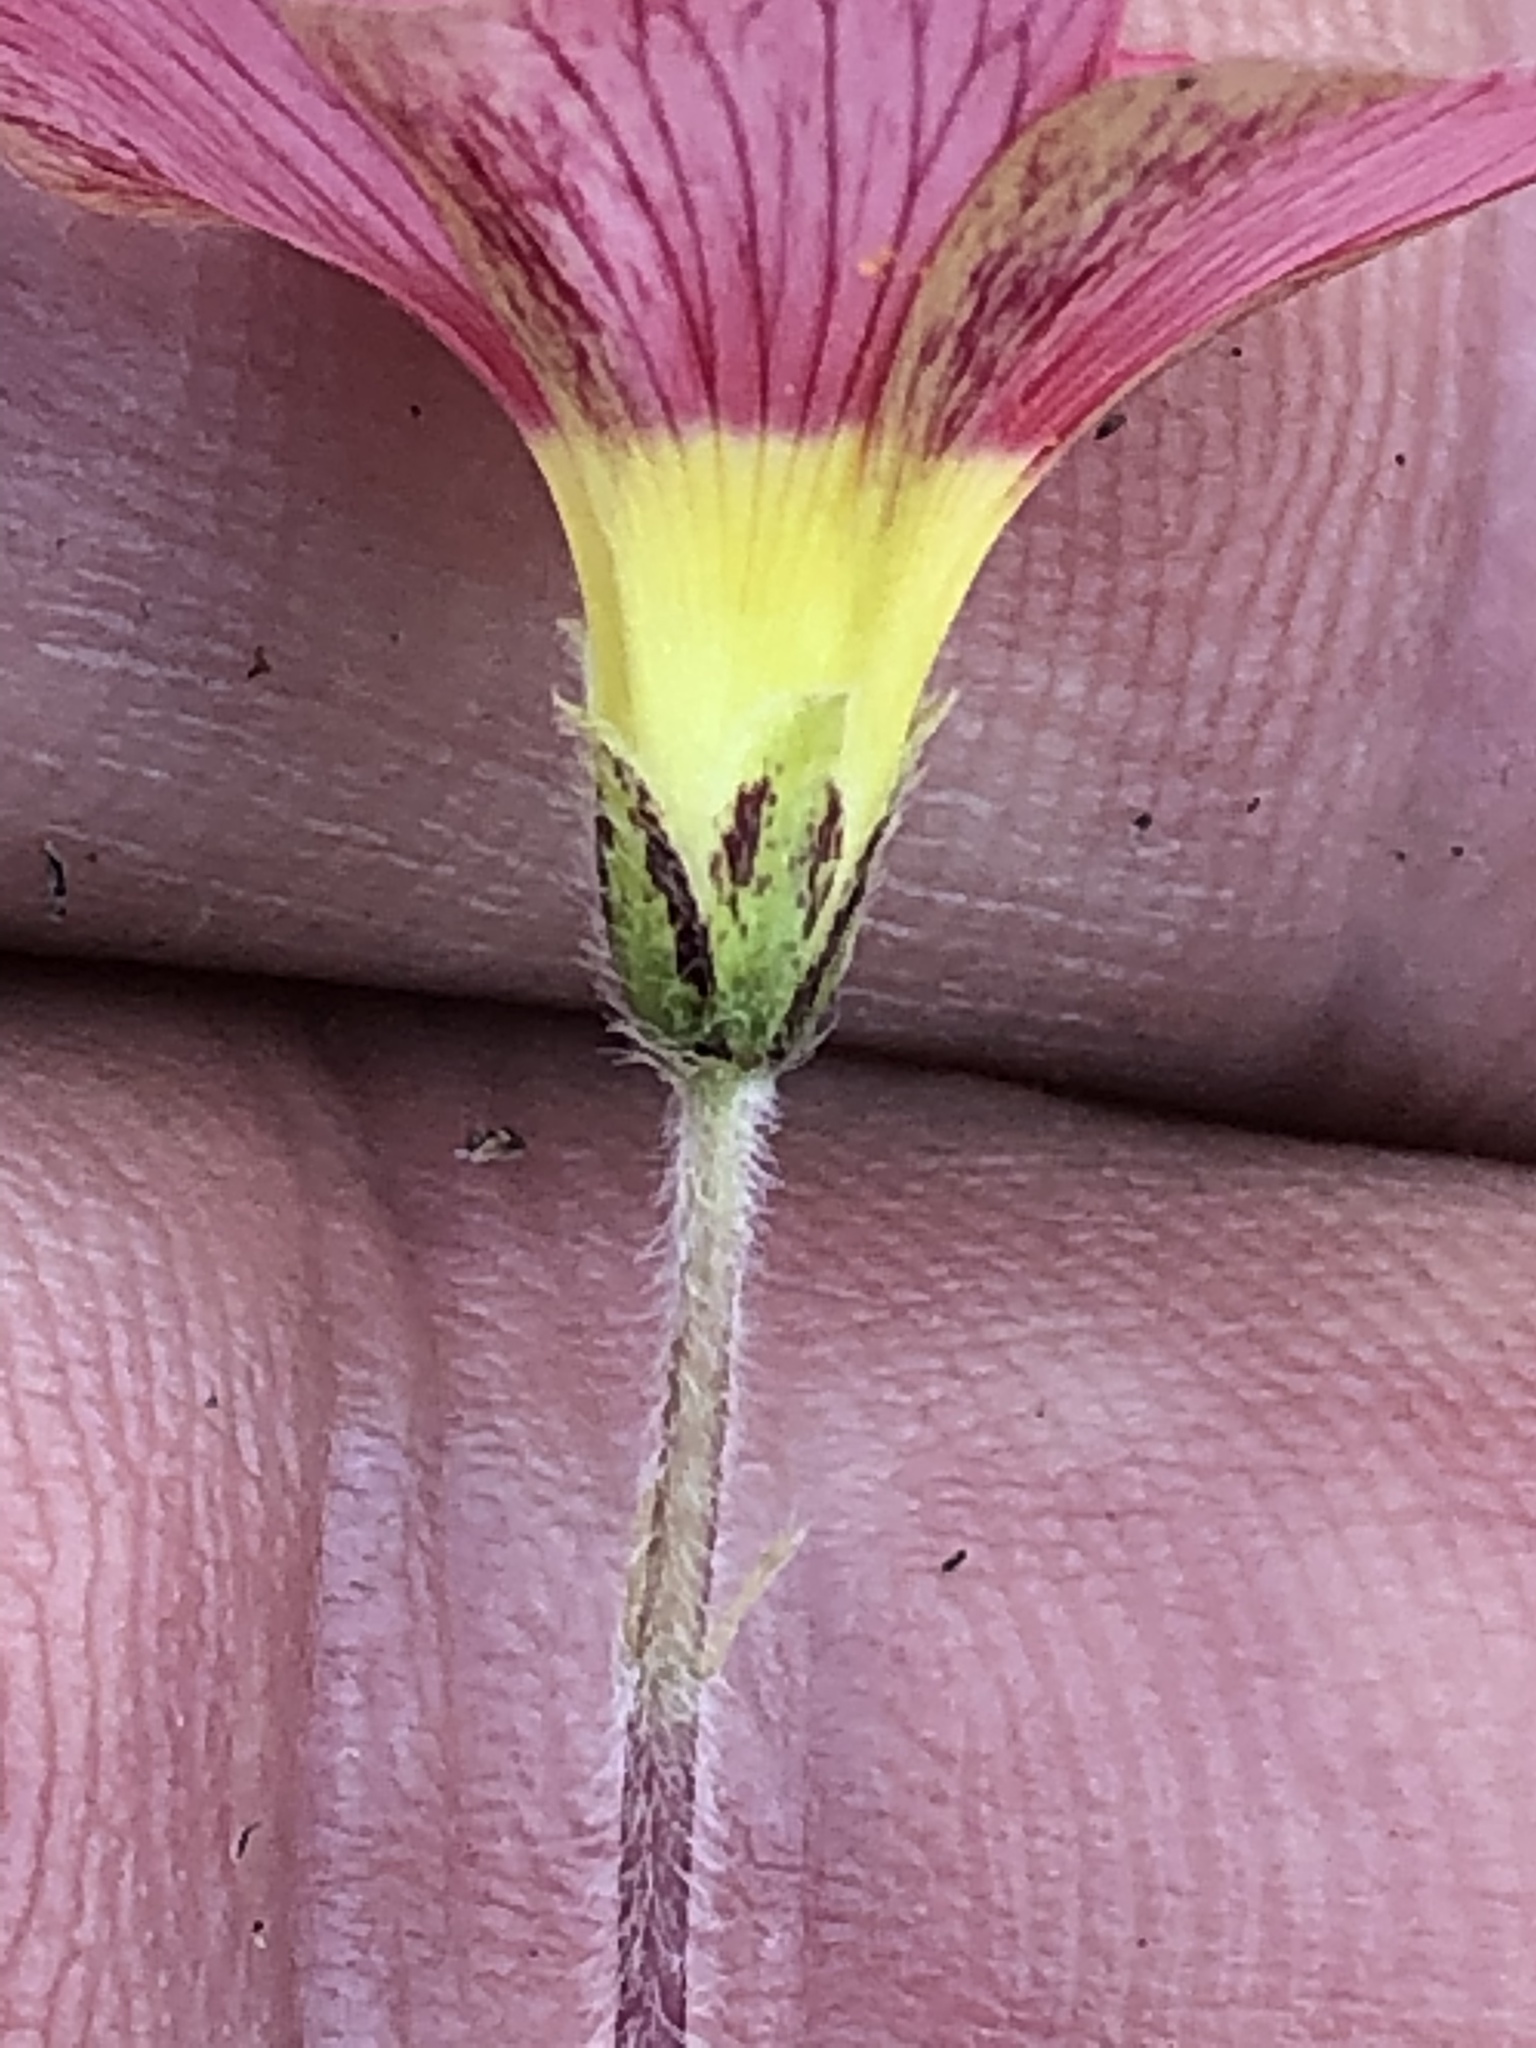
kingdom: Plantae
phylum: Tracheophyta
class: Magnoliopsida
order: Oxalidales
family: Oxalidaceae
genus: Oxalis
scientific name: Oxalis obtusa
